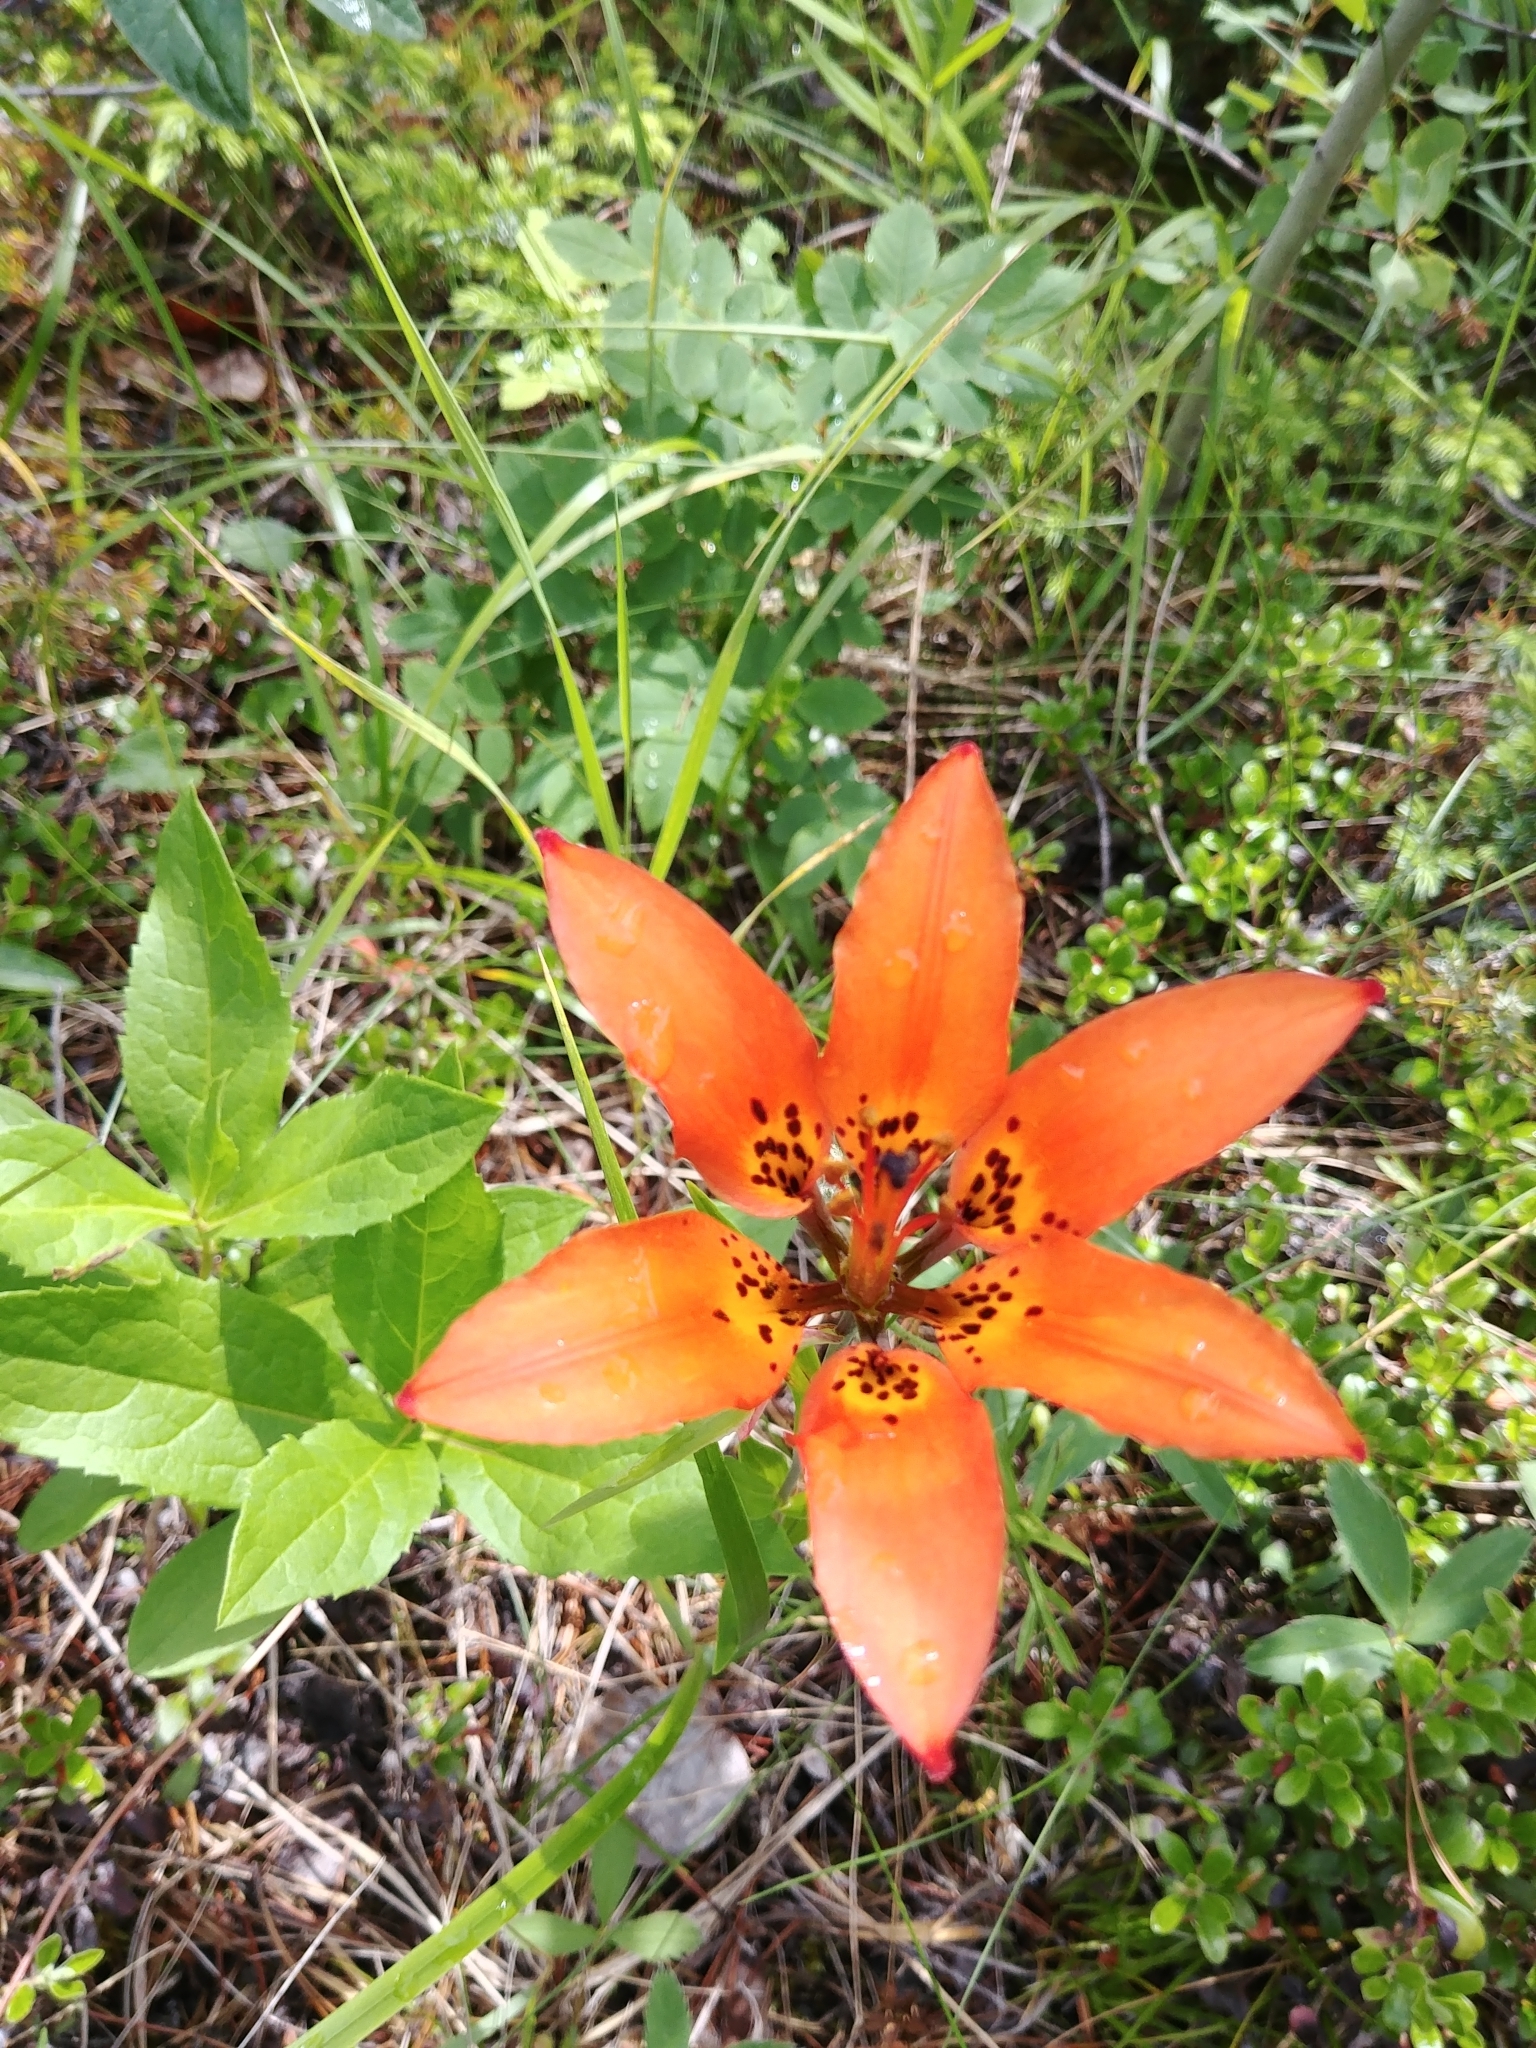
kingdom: Plantae
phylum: Tracheophyta
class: Liliopsida
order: Liliales
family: Liliaceae
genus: Lilium
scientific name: Lilium philadelphicum
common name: Red lily
